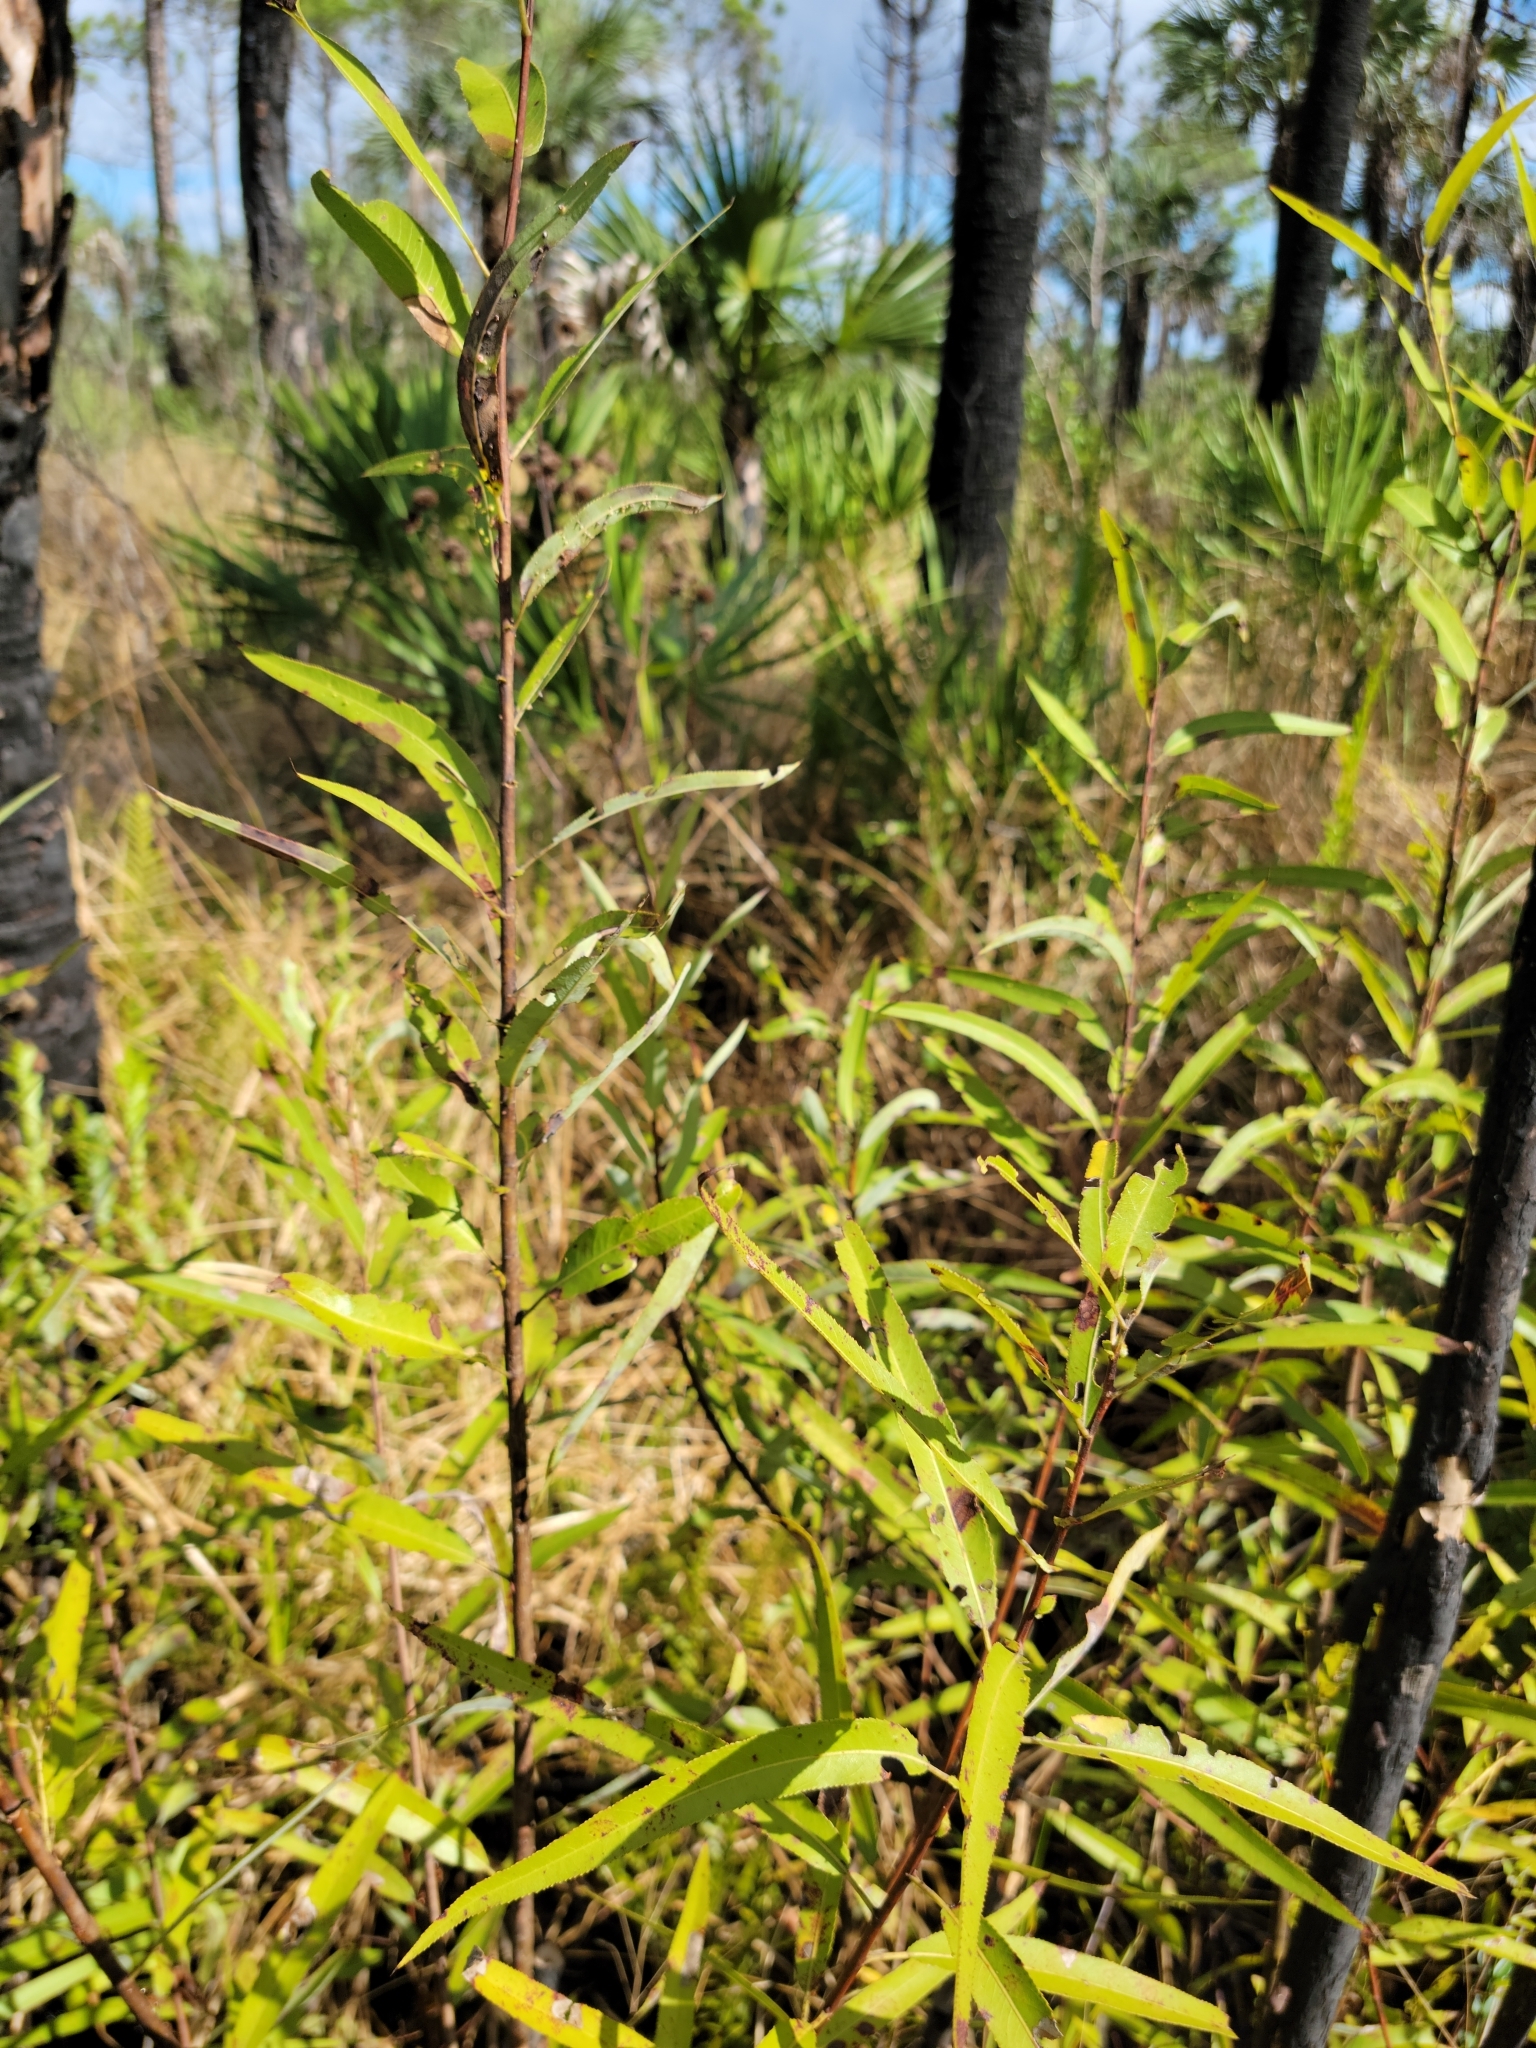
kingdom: Plantae
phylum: Tracheophyta
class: Magnoliopsida
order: Malpighiales
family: Salicaceae
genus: Salix
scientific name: Salix caroliniana
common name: Carolina willow
